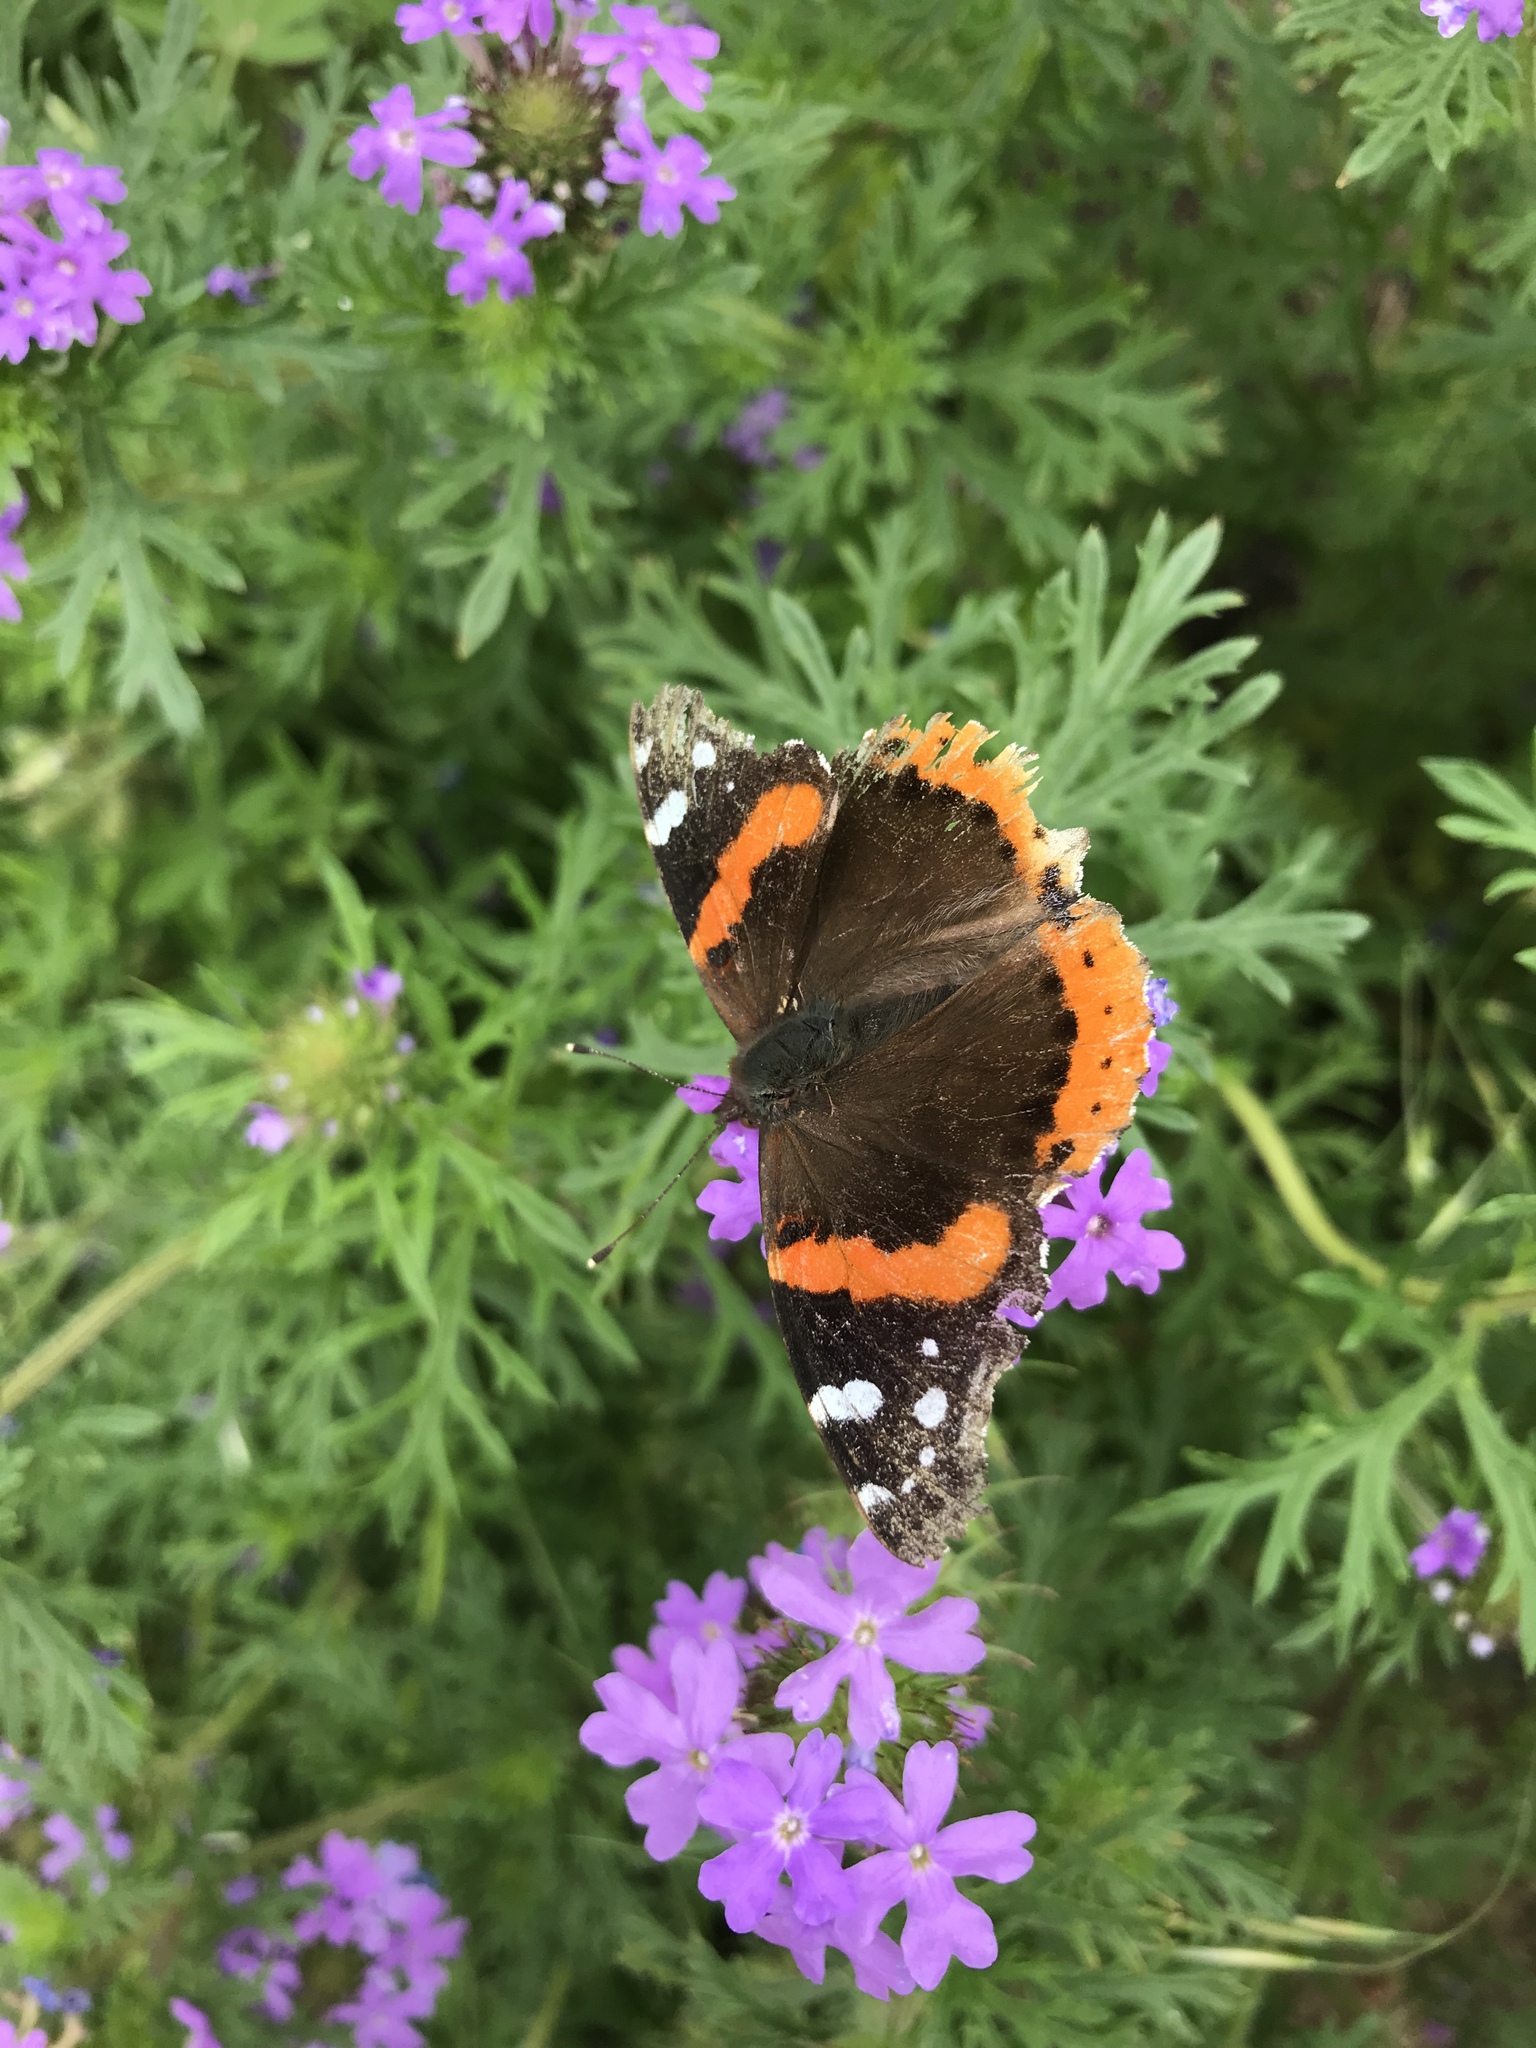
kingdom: Animalia
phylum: Arthropoda
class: Insecta
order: Lepidoptera
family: Nymphalidae
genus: Vanessa
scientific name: Vanessa atalanta
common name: Red admiral
